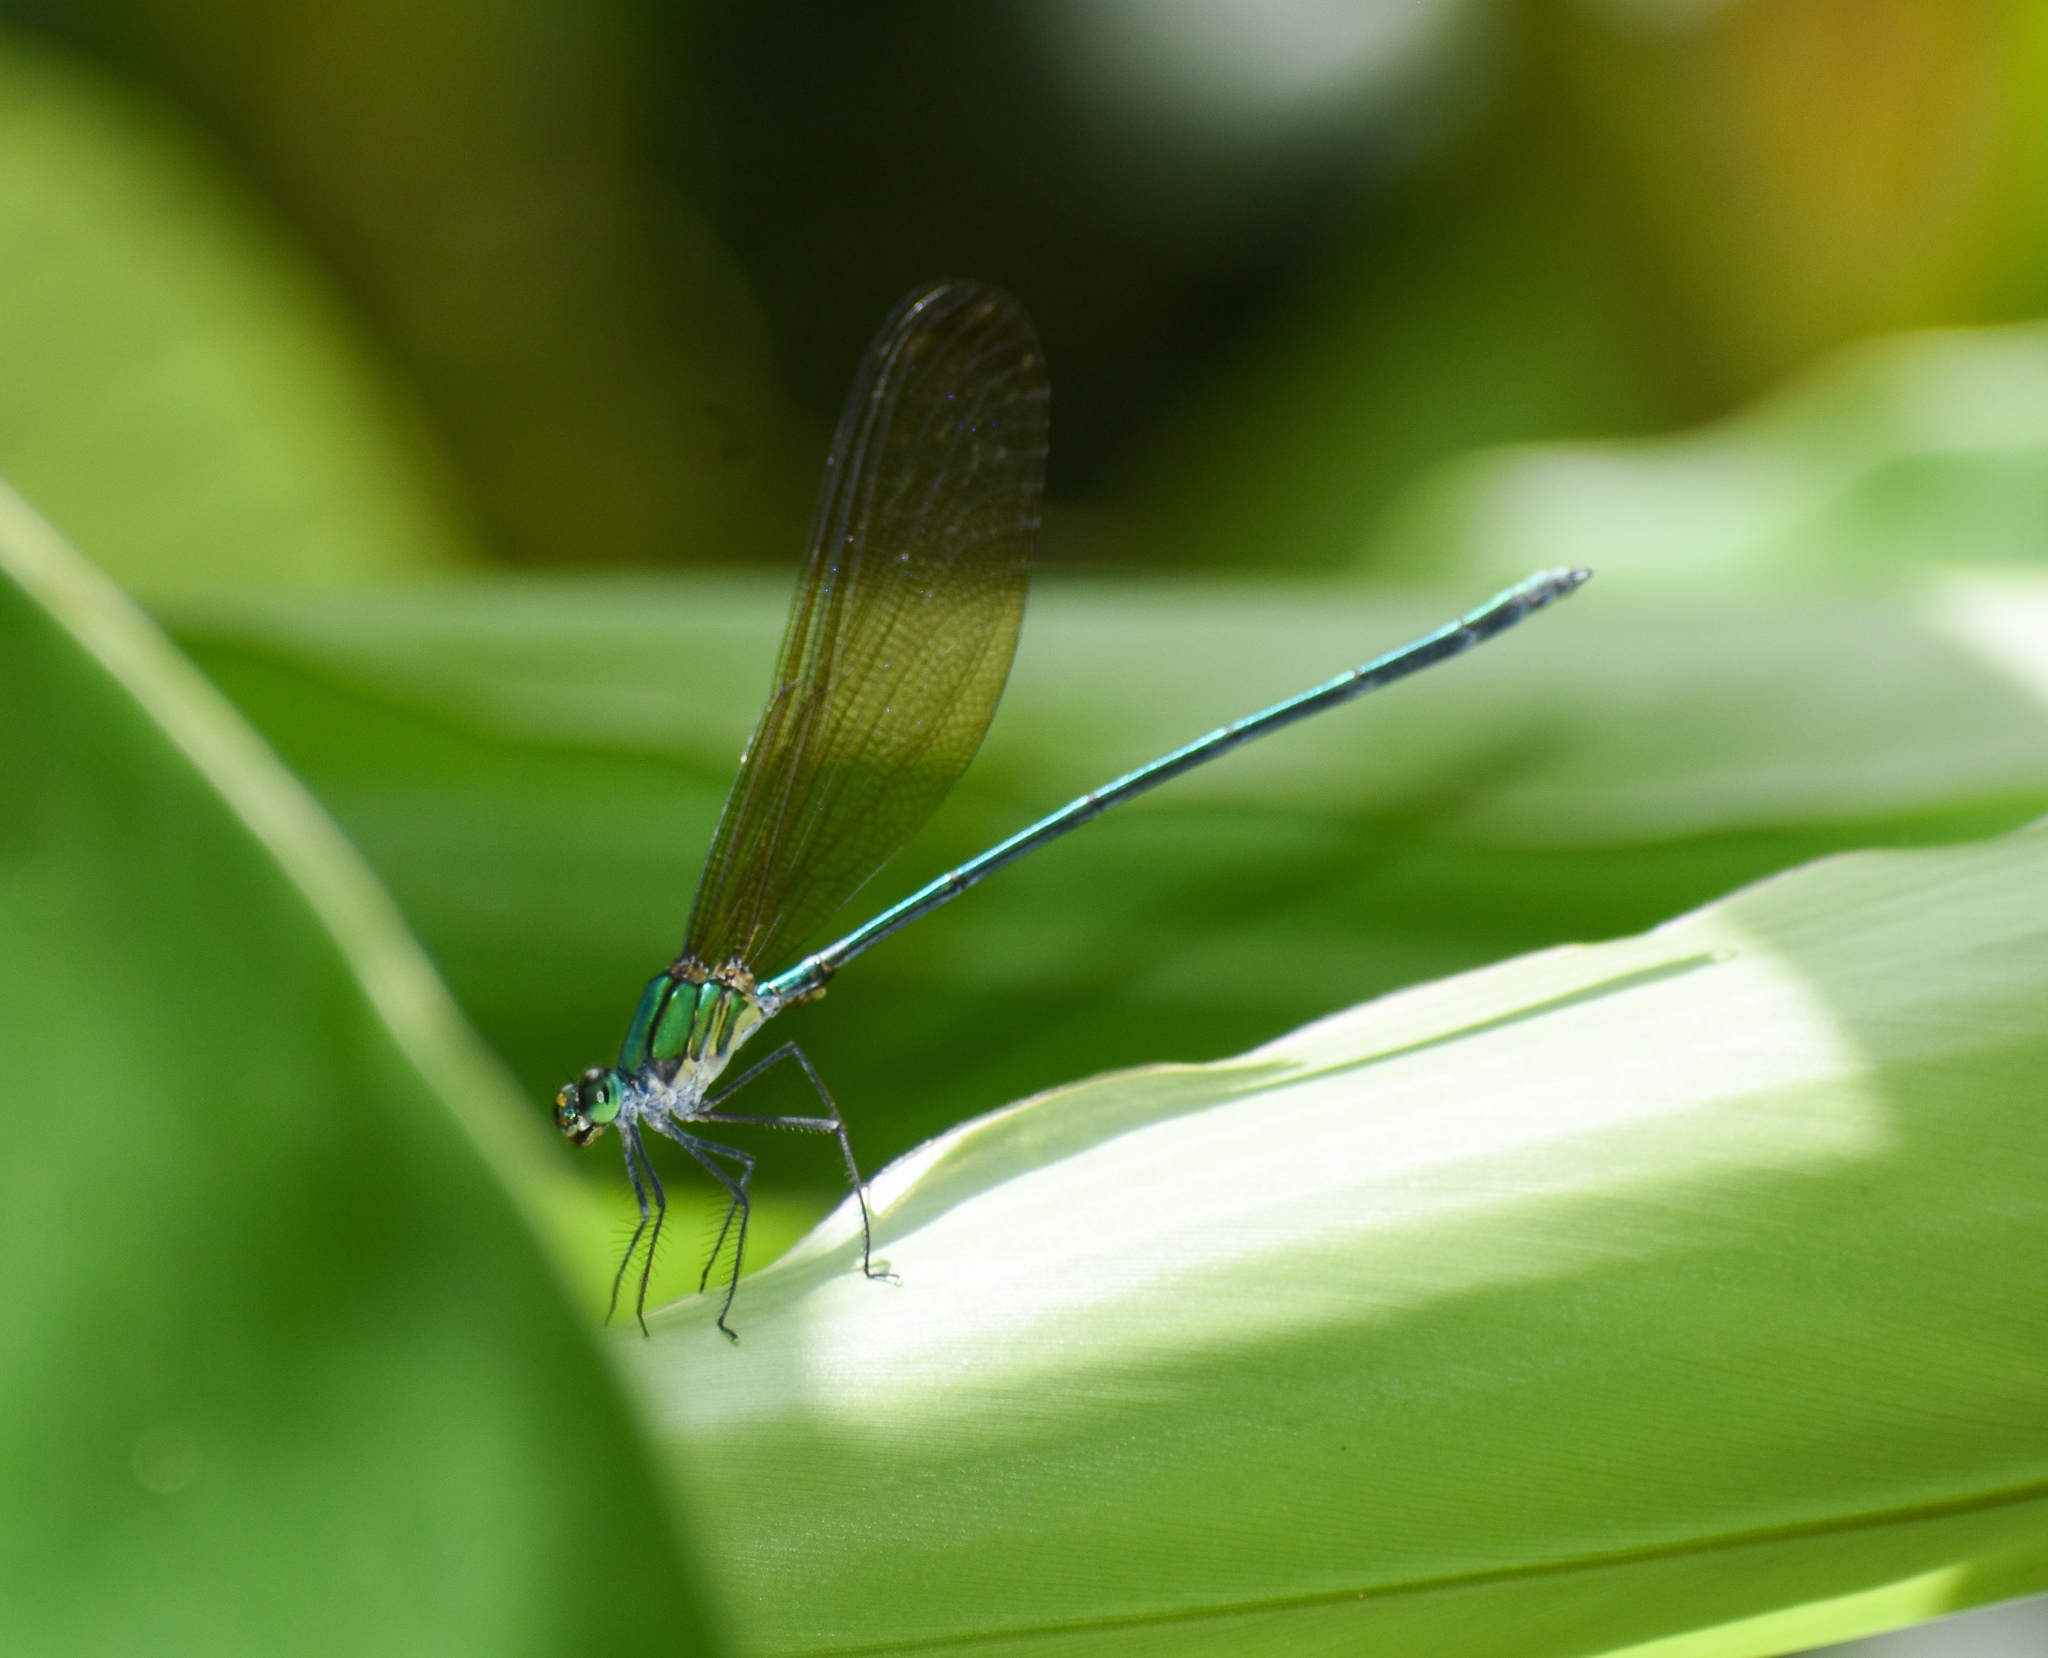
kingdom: Animalia
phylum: Arthropoda
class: Insecta
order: Odonata
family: Calopterygidae
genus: Vestalis
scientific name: Vestalis gracilis
